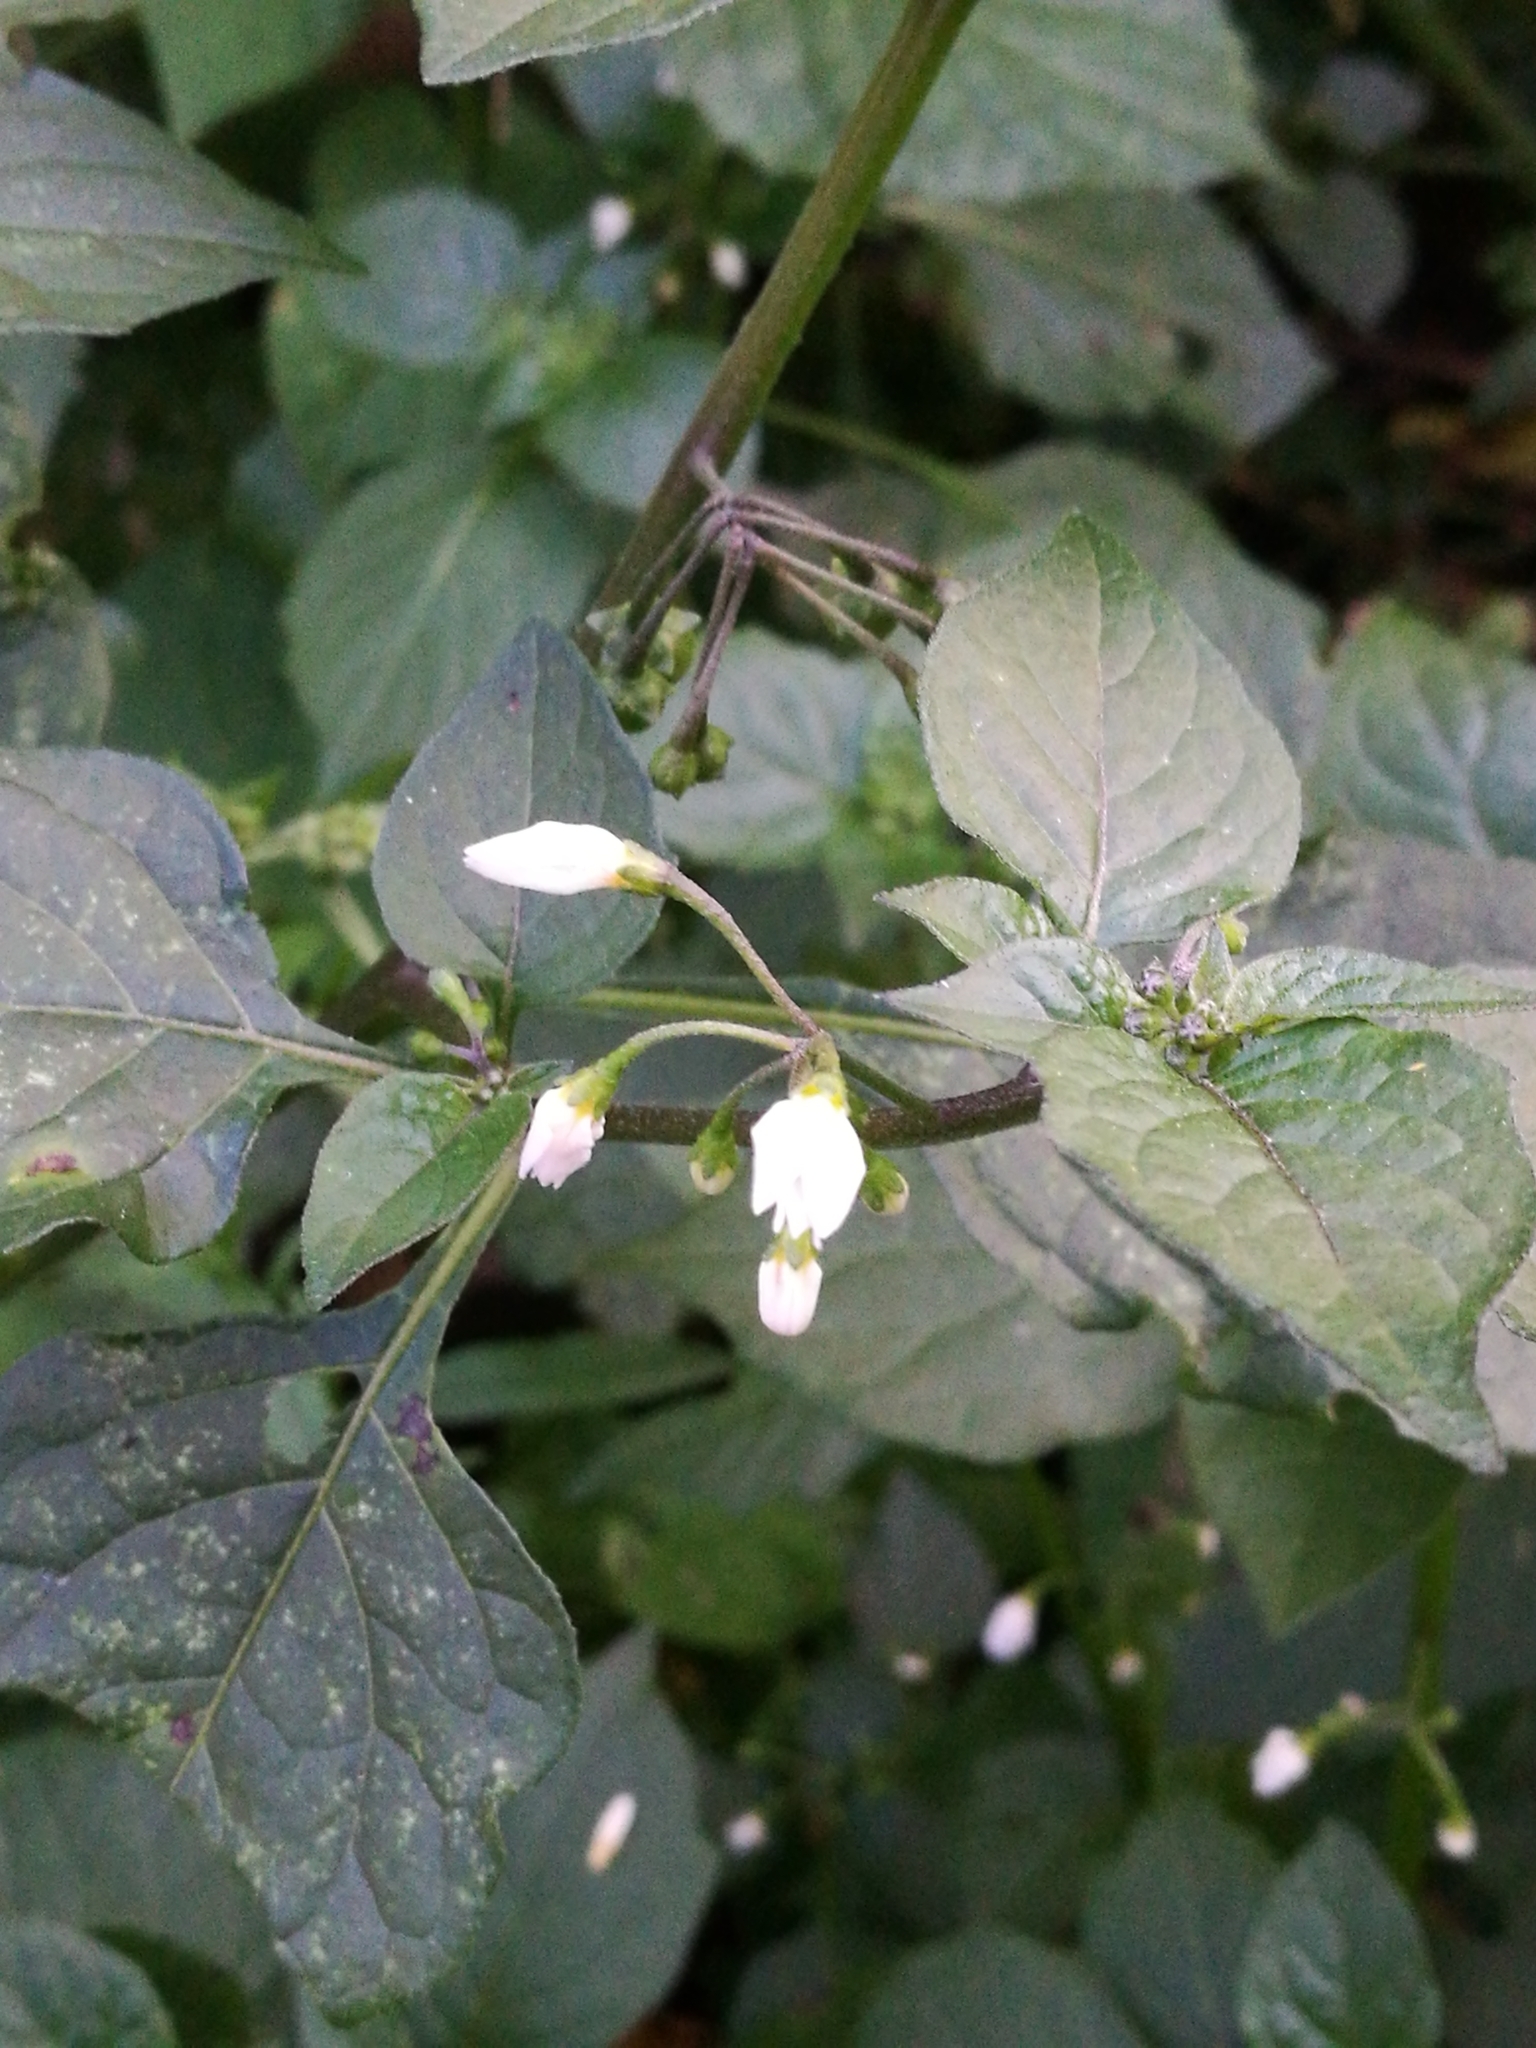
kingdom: Plantae
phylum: Tracheophyta
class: Magnoliopsida
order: Solanales
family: Solanaceae
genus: Solanum
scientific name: Solanum nigrum
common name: Black nightshade
